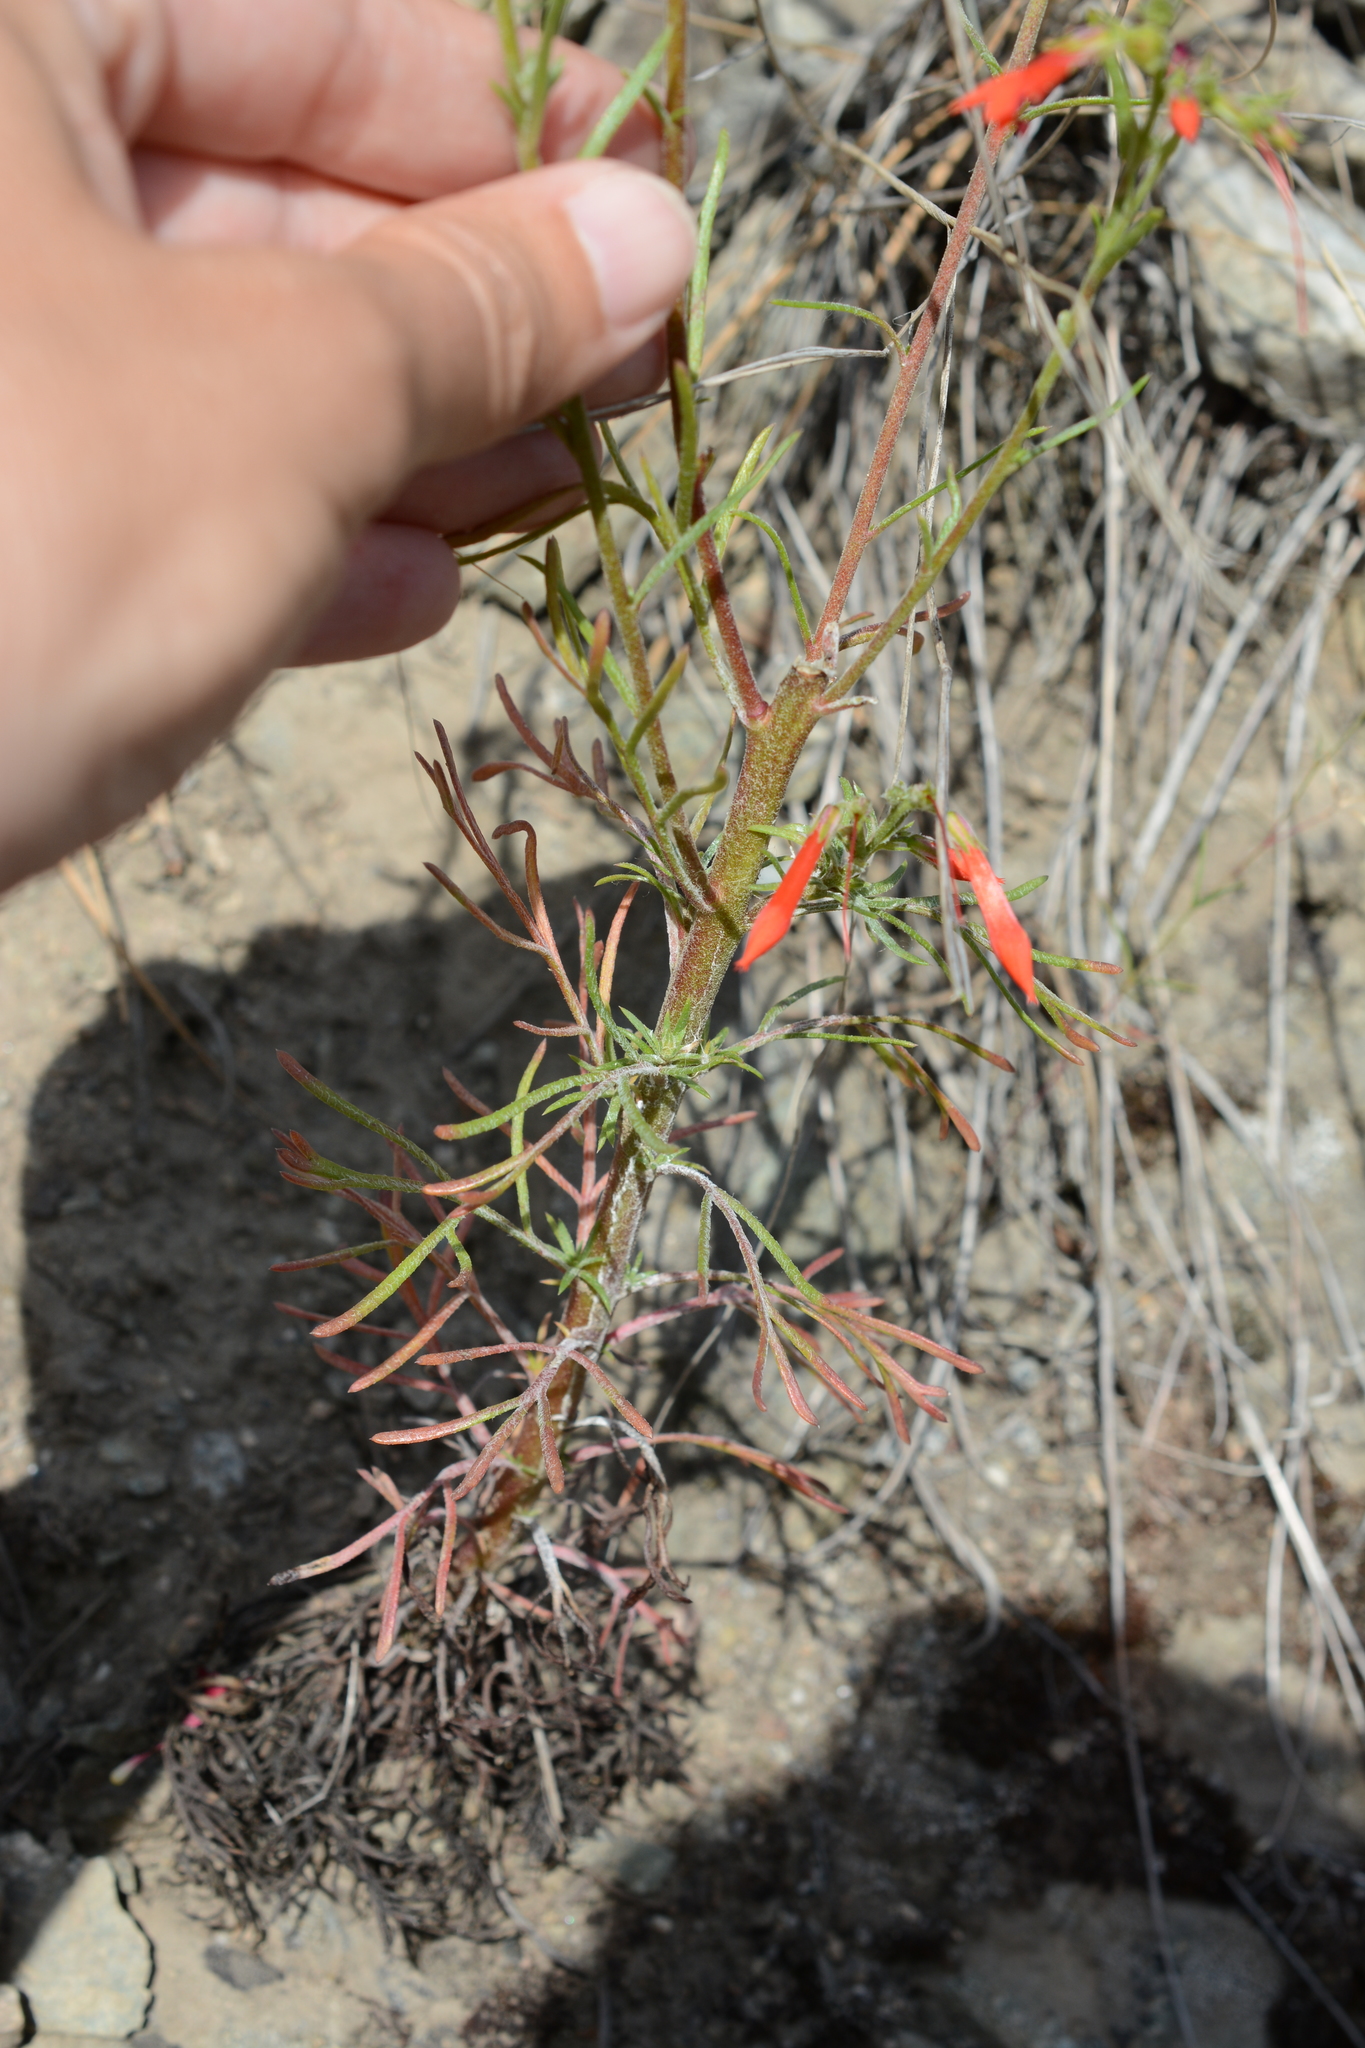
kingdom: Plantae
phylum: Tracheophyta
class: Magnoliopsida
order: Ericales
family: Polemoniaceae
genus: Ipomopsis
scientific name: Ipomopsis aggregata
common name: Scarlet gilia
